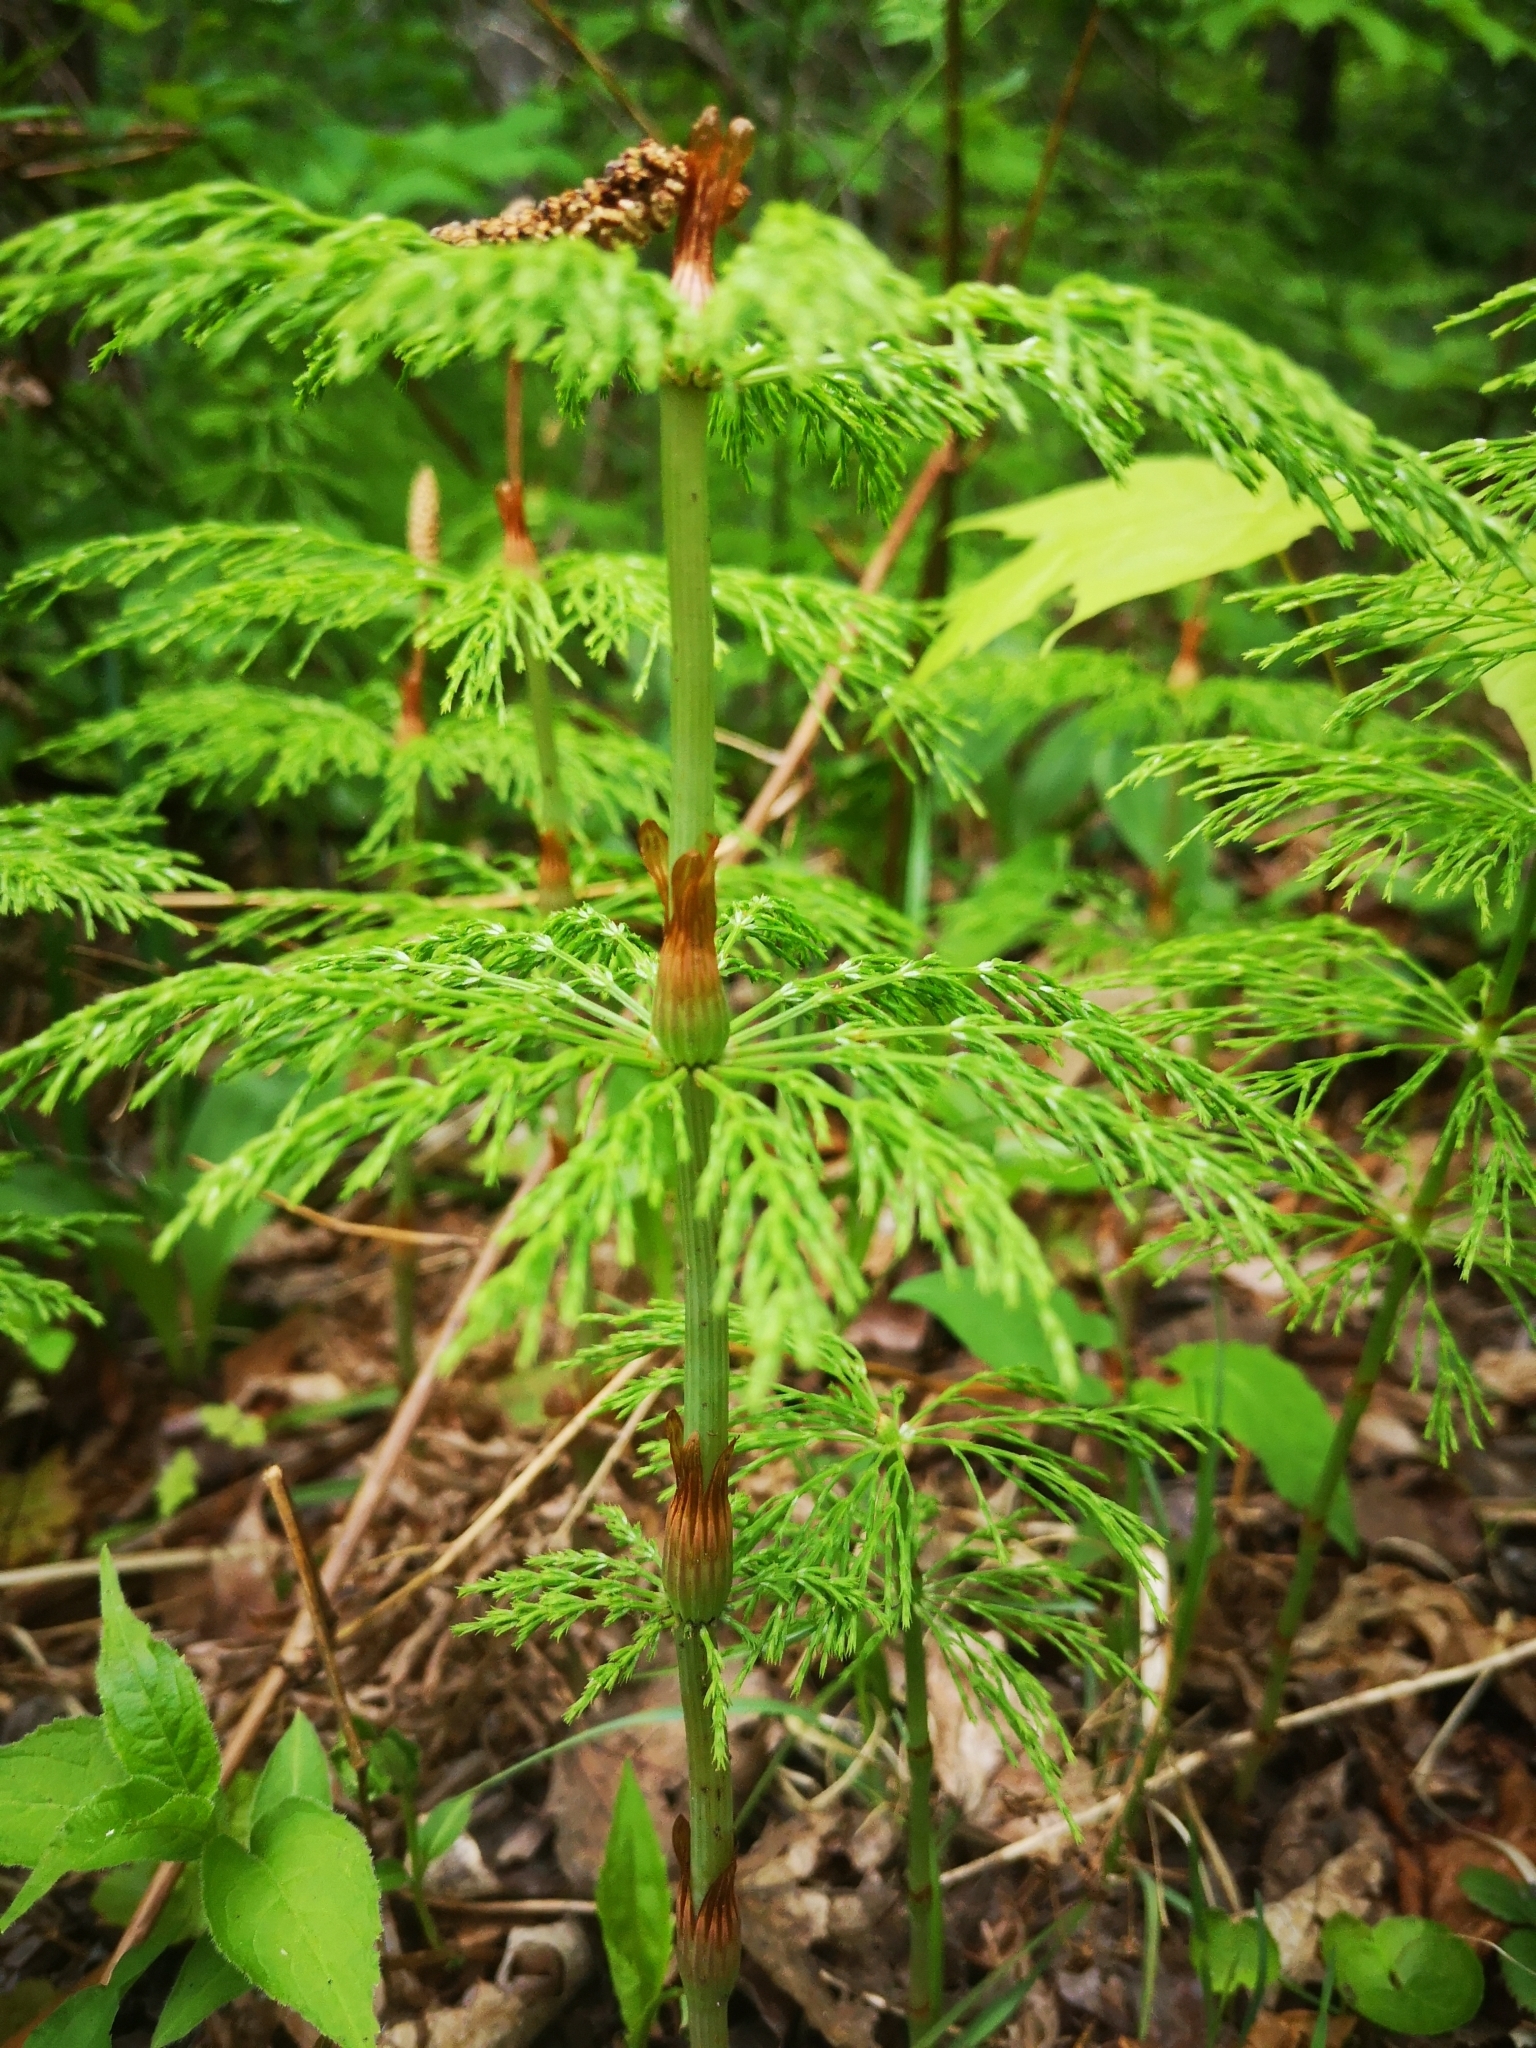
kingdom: Plantae
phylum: Tracheophyta
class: Polypodiopsida
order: Equisetales
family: Equisetaceae
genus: Equisetum
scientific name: Equisetum sylvaticum
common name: Wood horsetail
